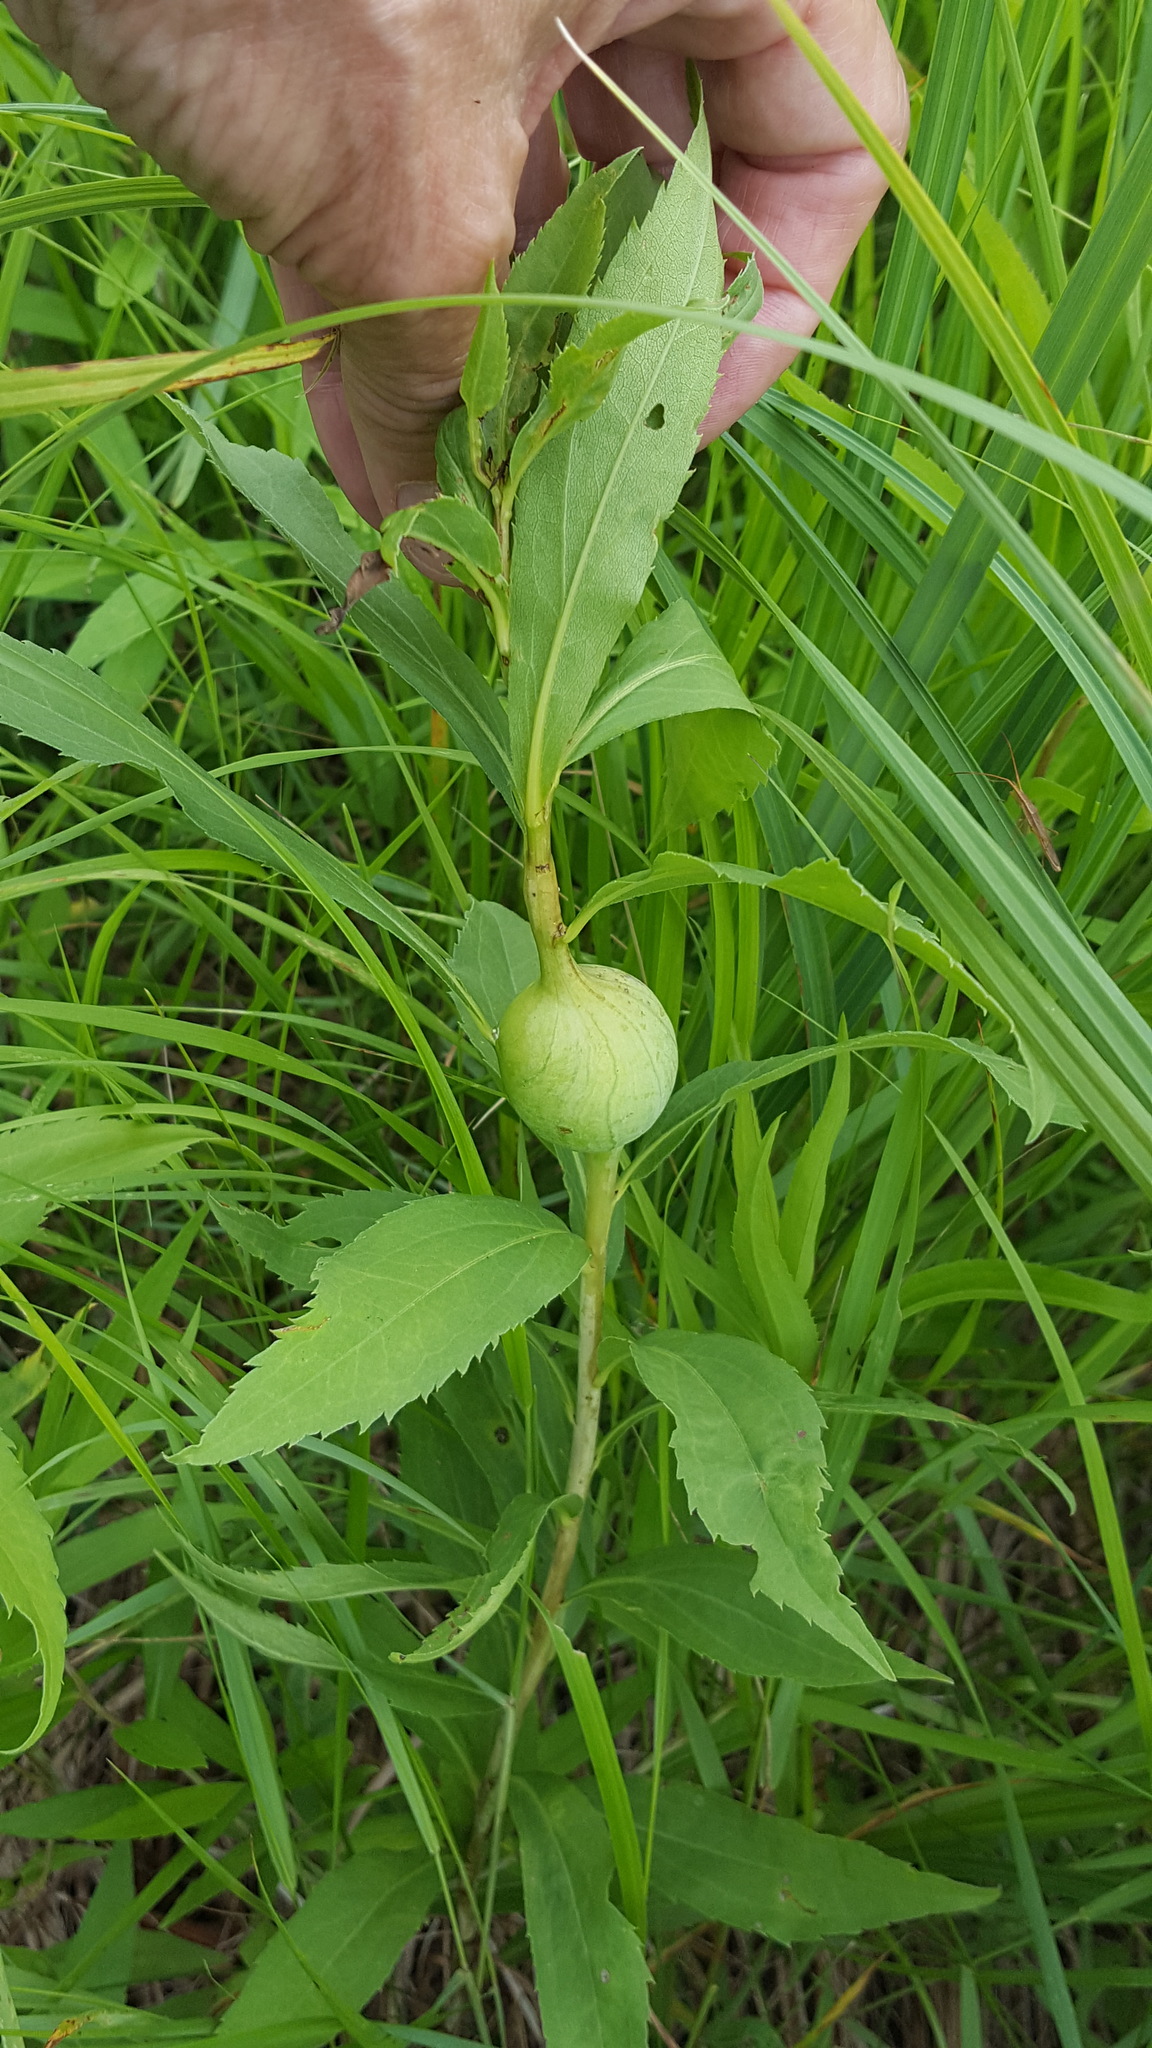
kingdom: Animalia
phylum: Arthropoda
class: Insecta
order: Diptera
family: Tephritidae
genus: Eurosta
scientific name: Eurosta solidaginis
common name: Goldenrod gall fly
